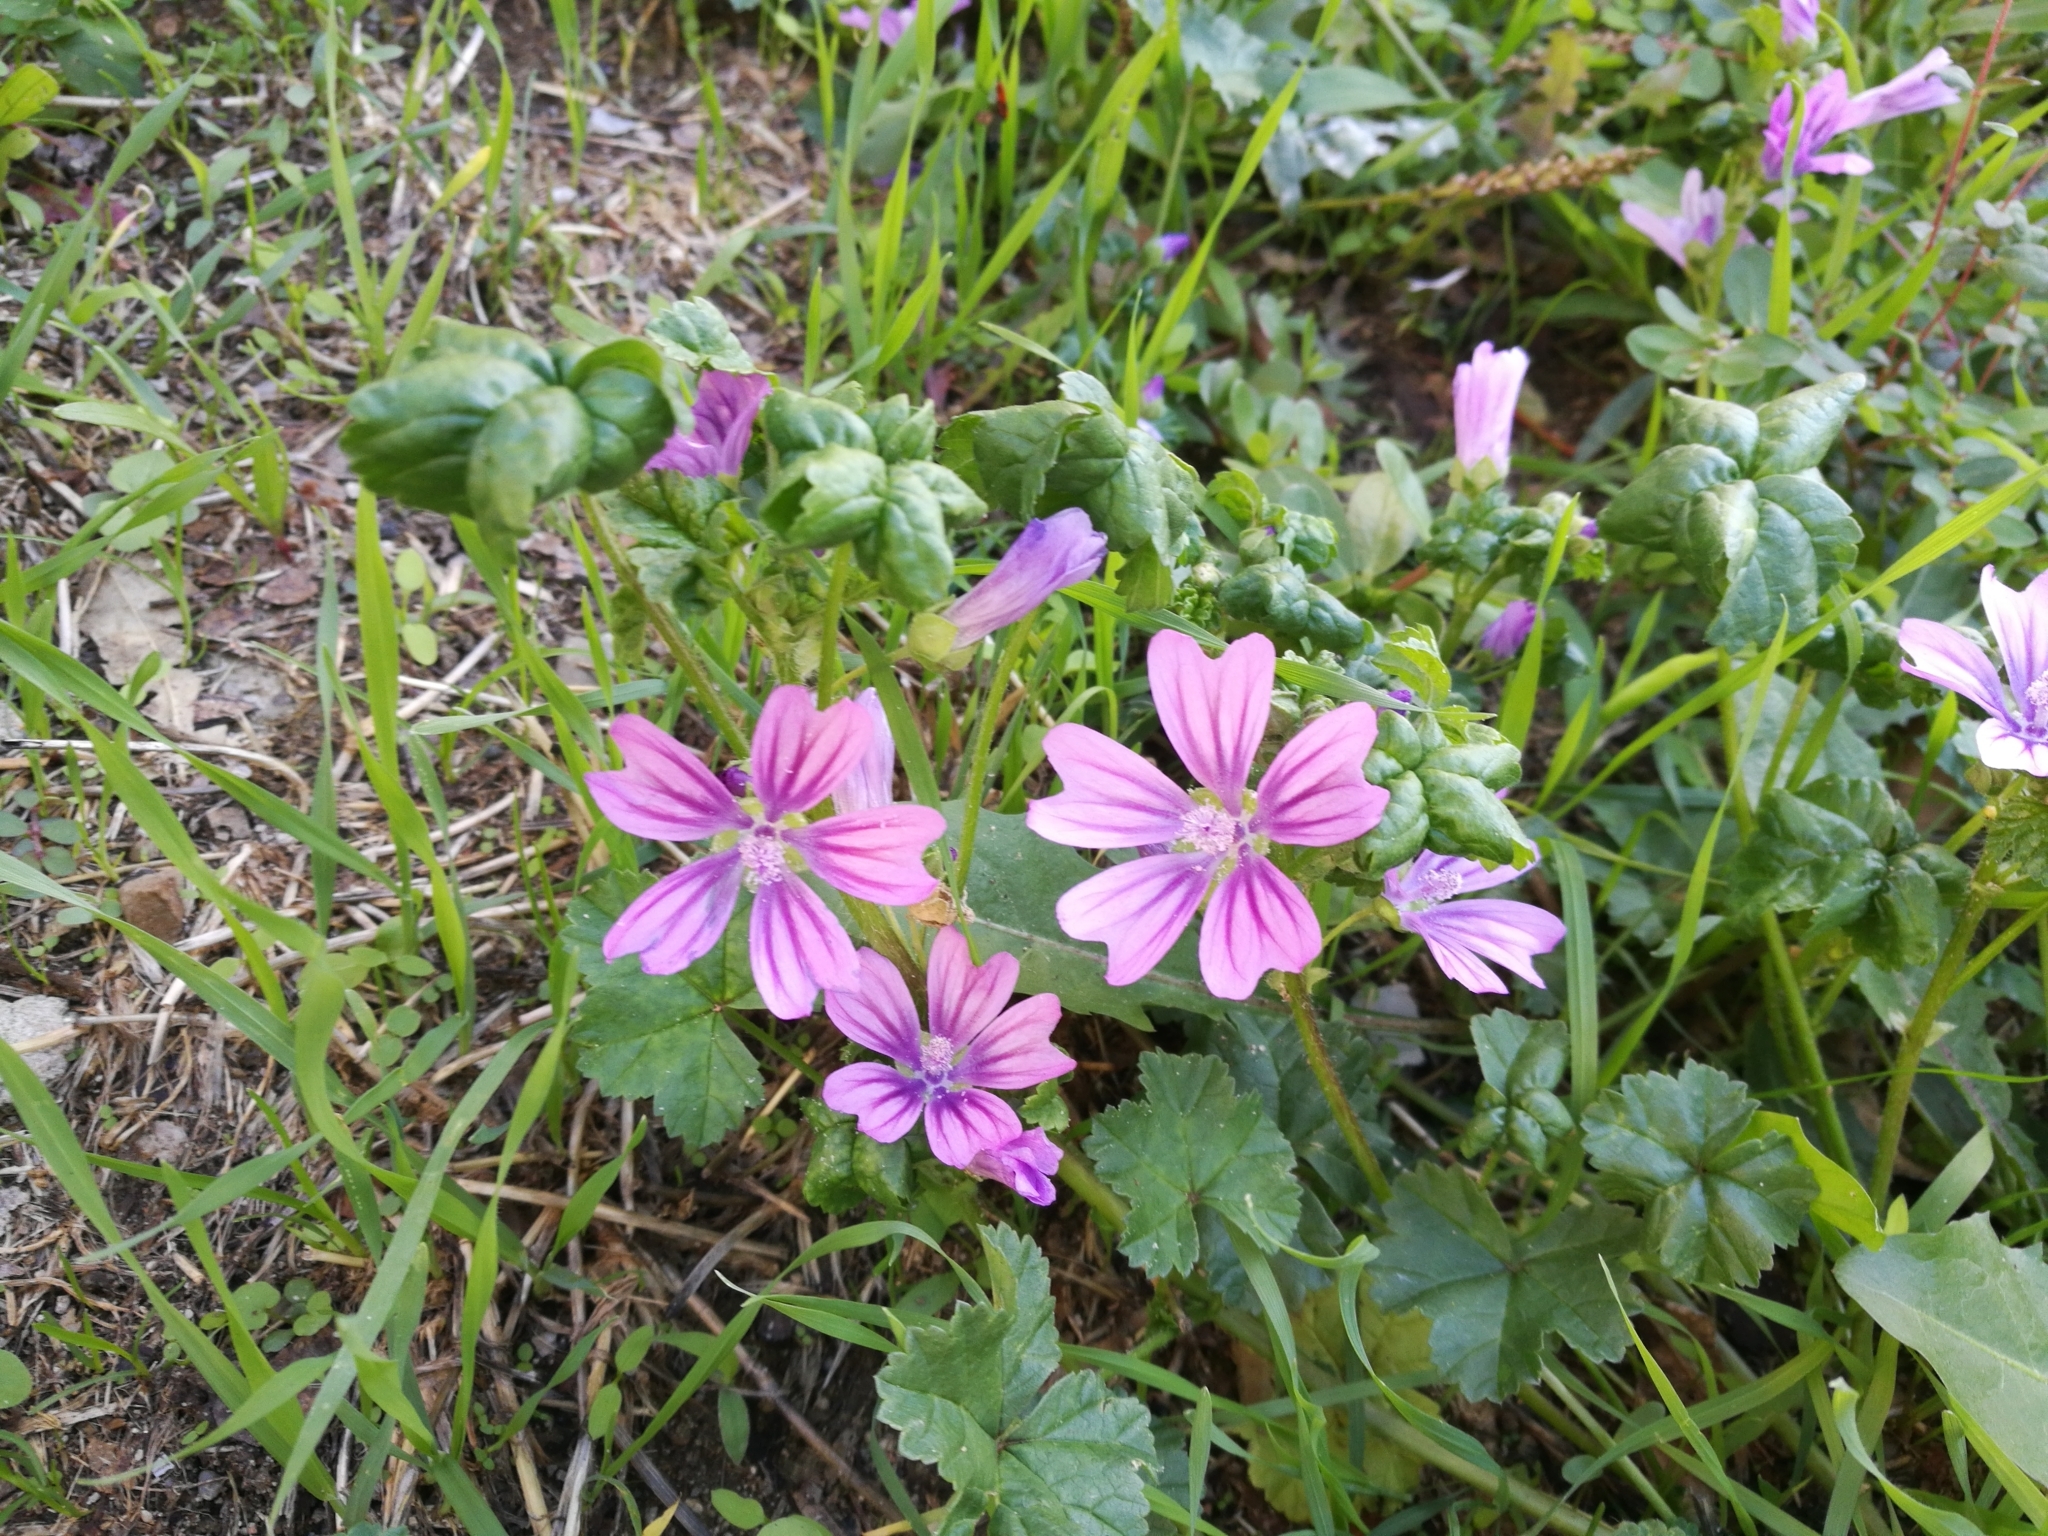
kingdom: Plantae
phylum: Tracheophyta
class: Magnoliopsida
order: Malvales
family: Malvaceae
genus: Malva
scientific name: Malva sylvestris
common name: Common mallow
